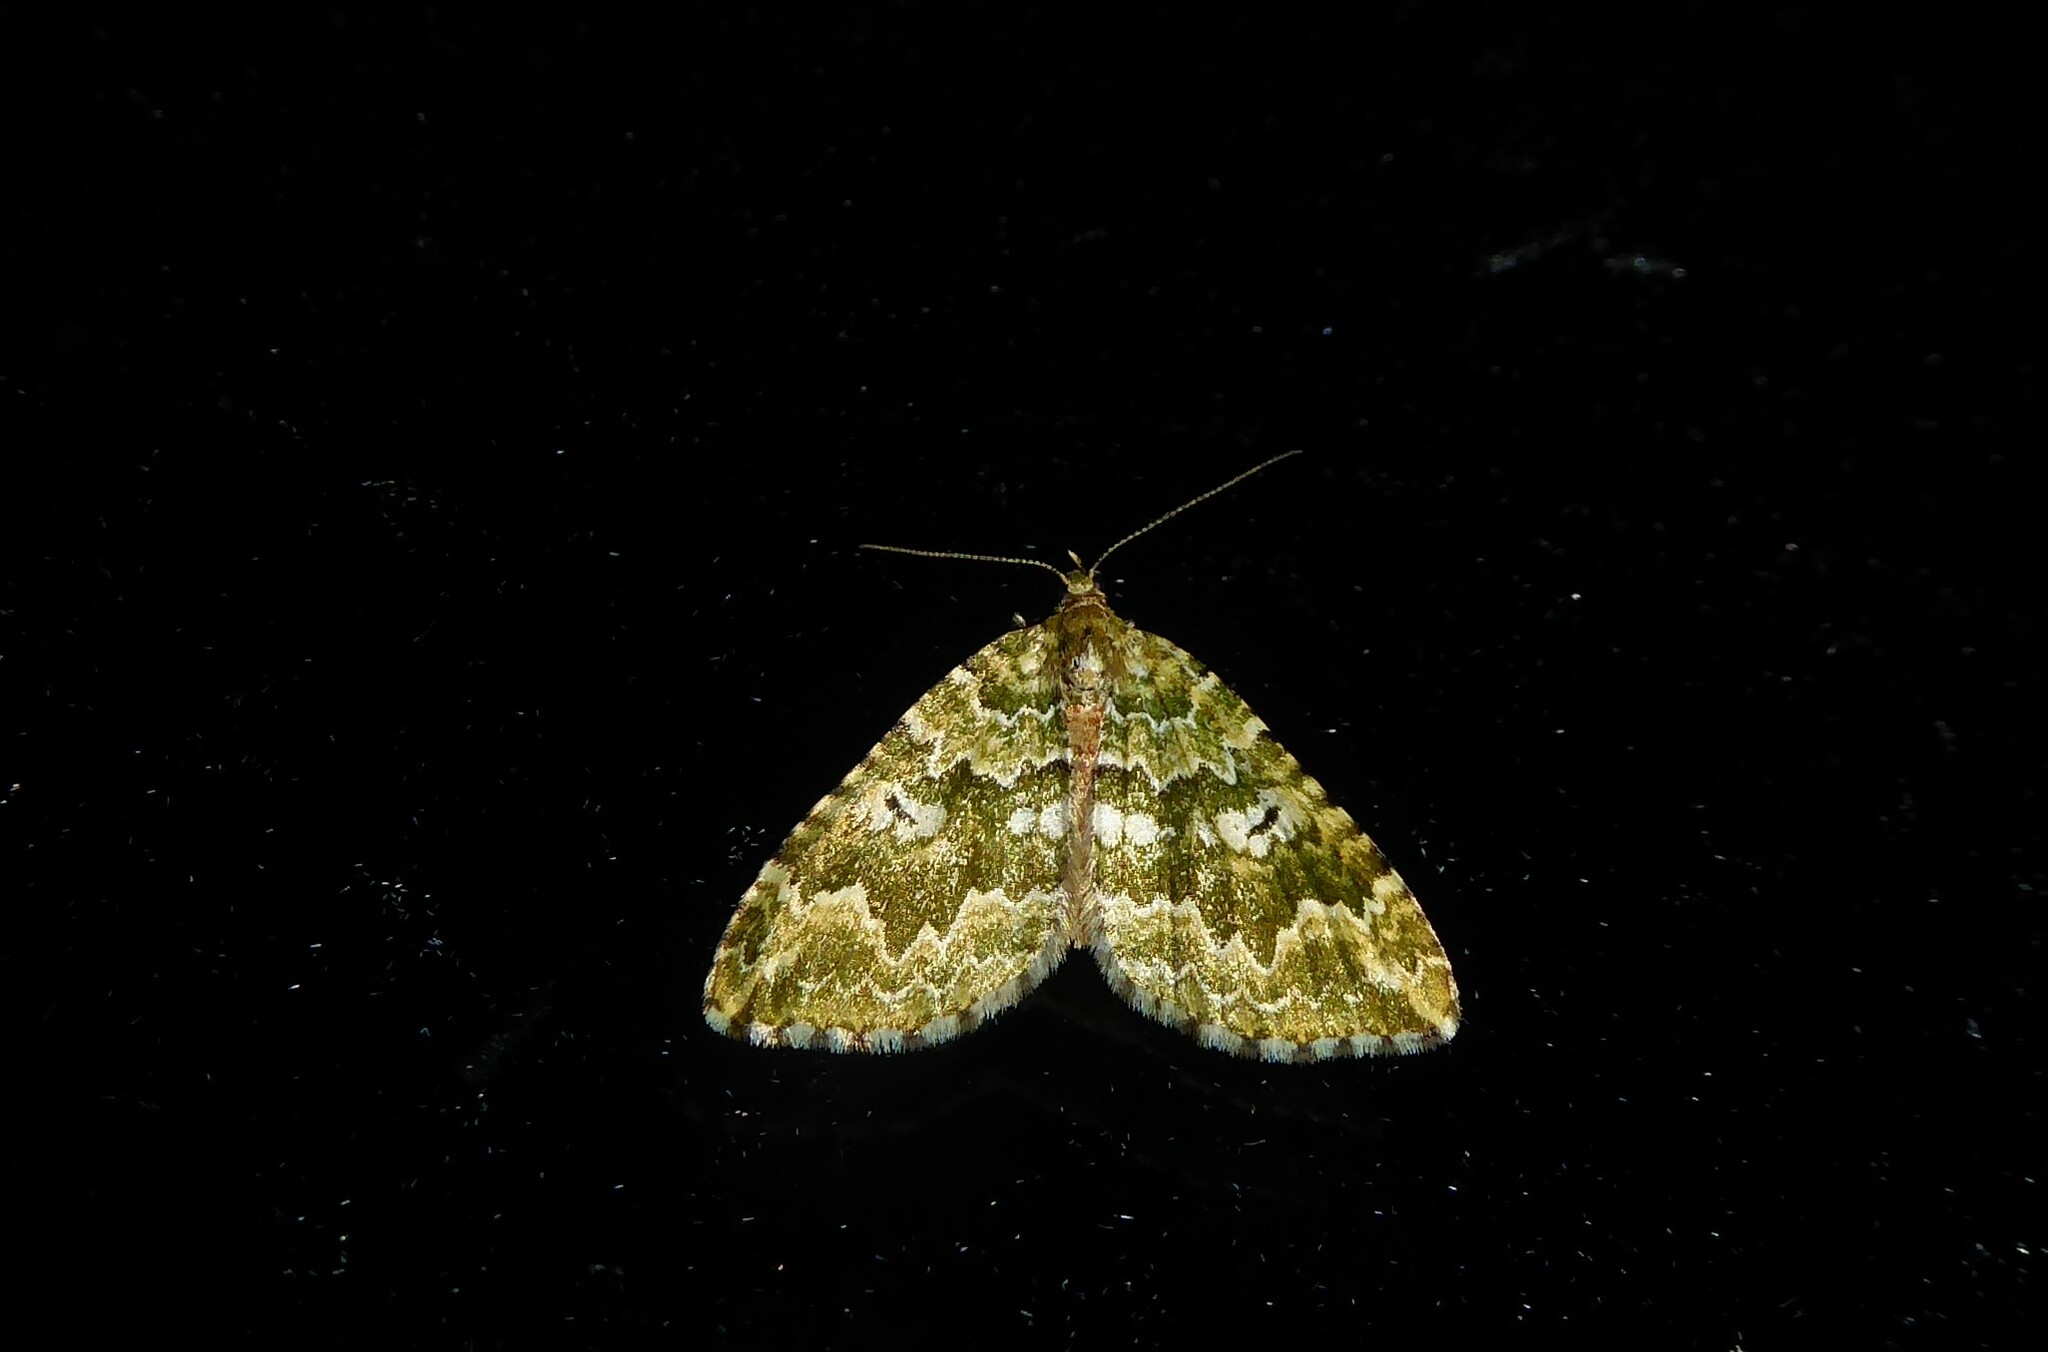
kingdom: Animalia
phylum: Arthropoda
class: Insecta
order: Lepidoptera
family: Geometridae
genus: Asaphodes
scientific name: Asaphodes beata
